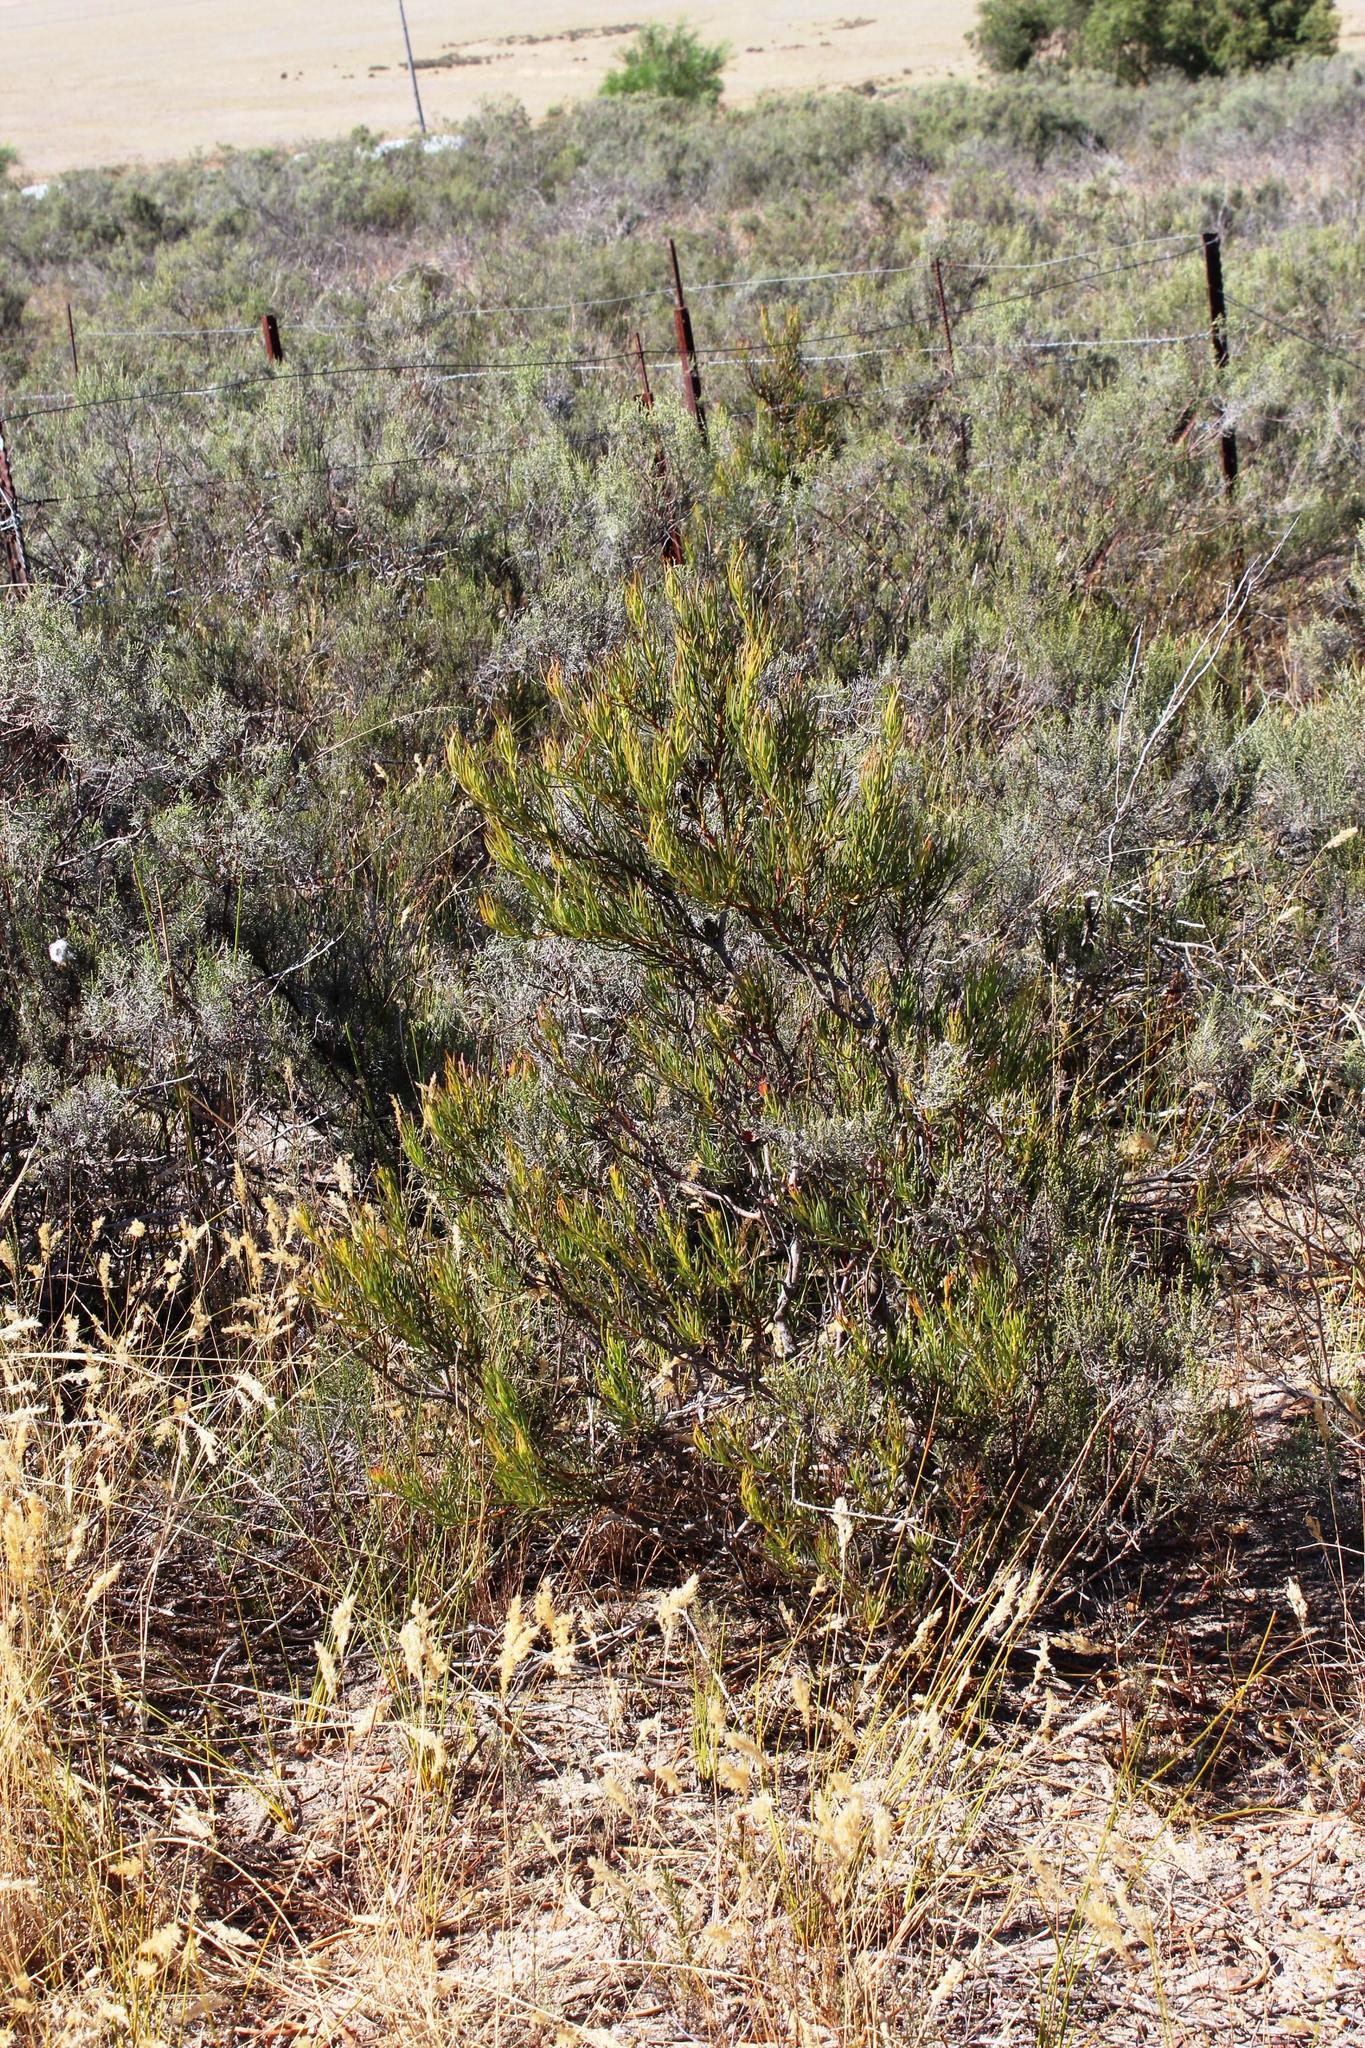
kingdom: Plantae
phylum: Tracheophyta
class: Magnoliopsida
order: Proteales
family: Proteaceae
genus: Protea
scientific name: Protea odorata
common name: Swartland sugarbush
